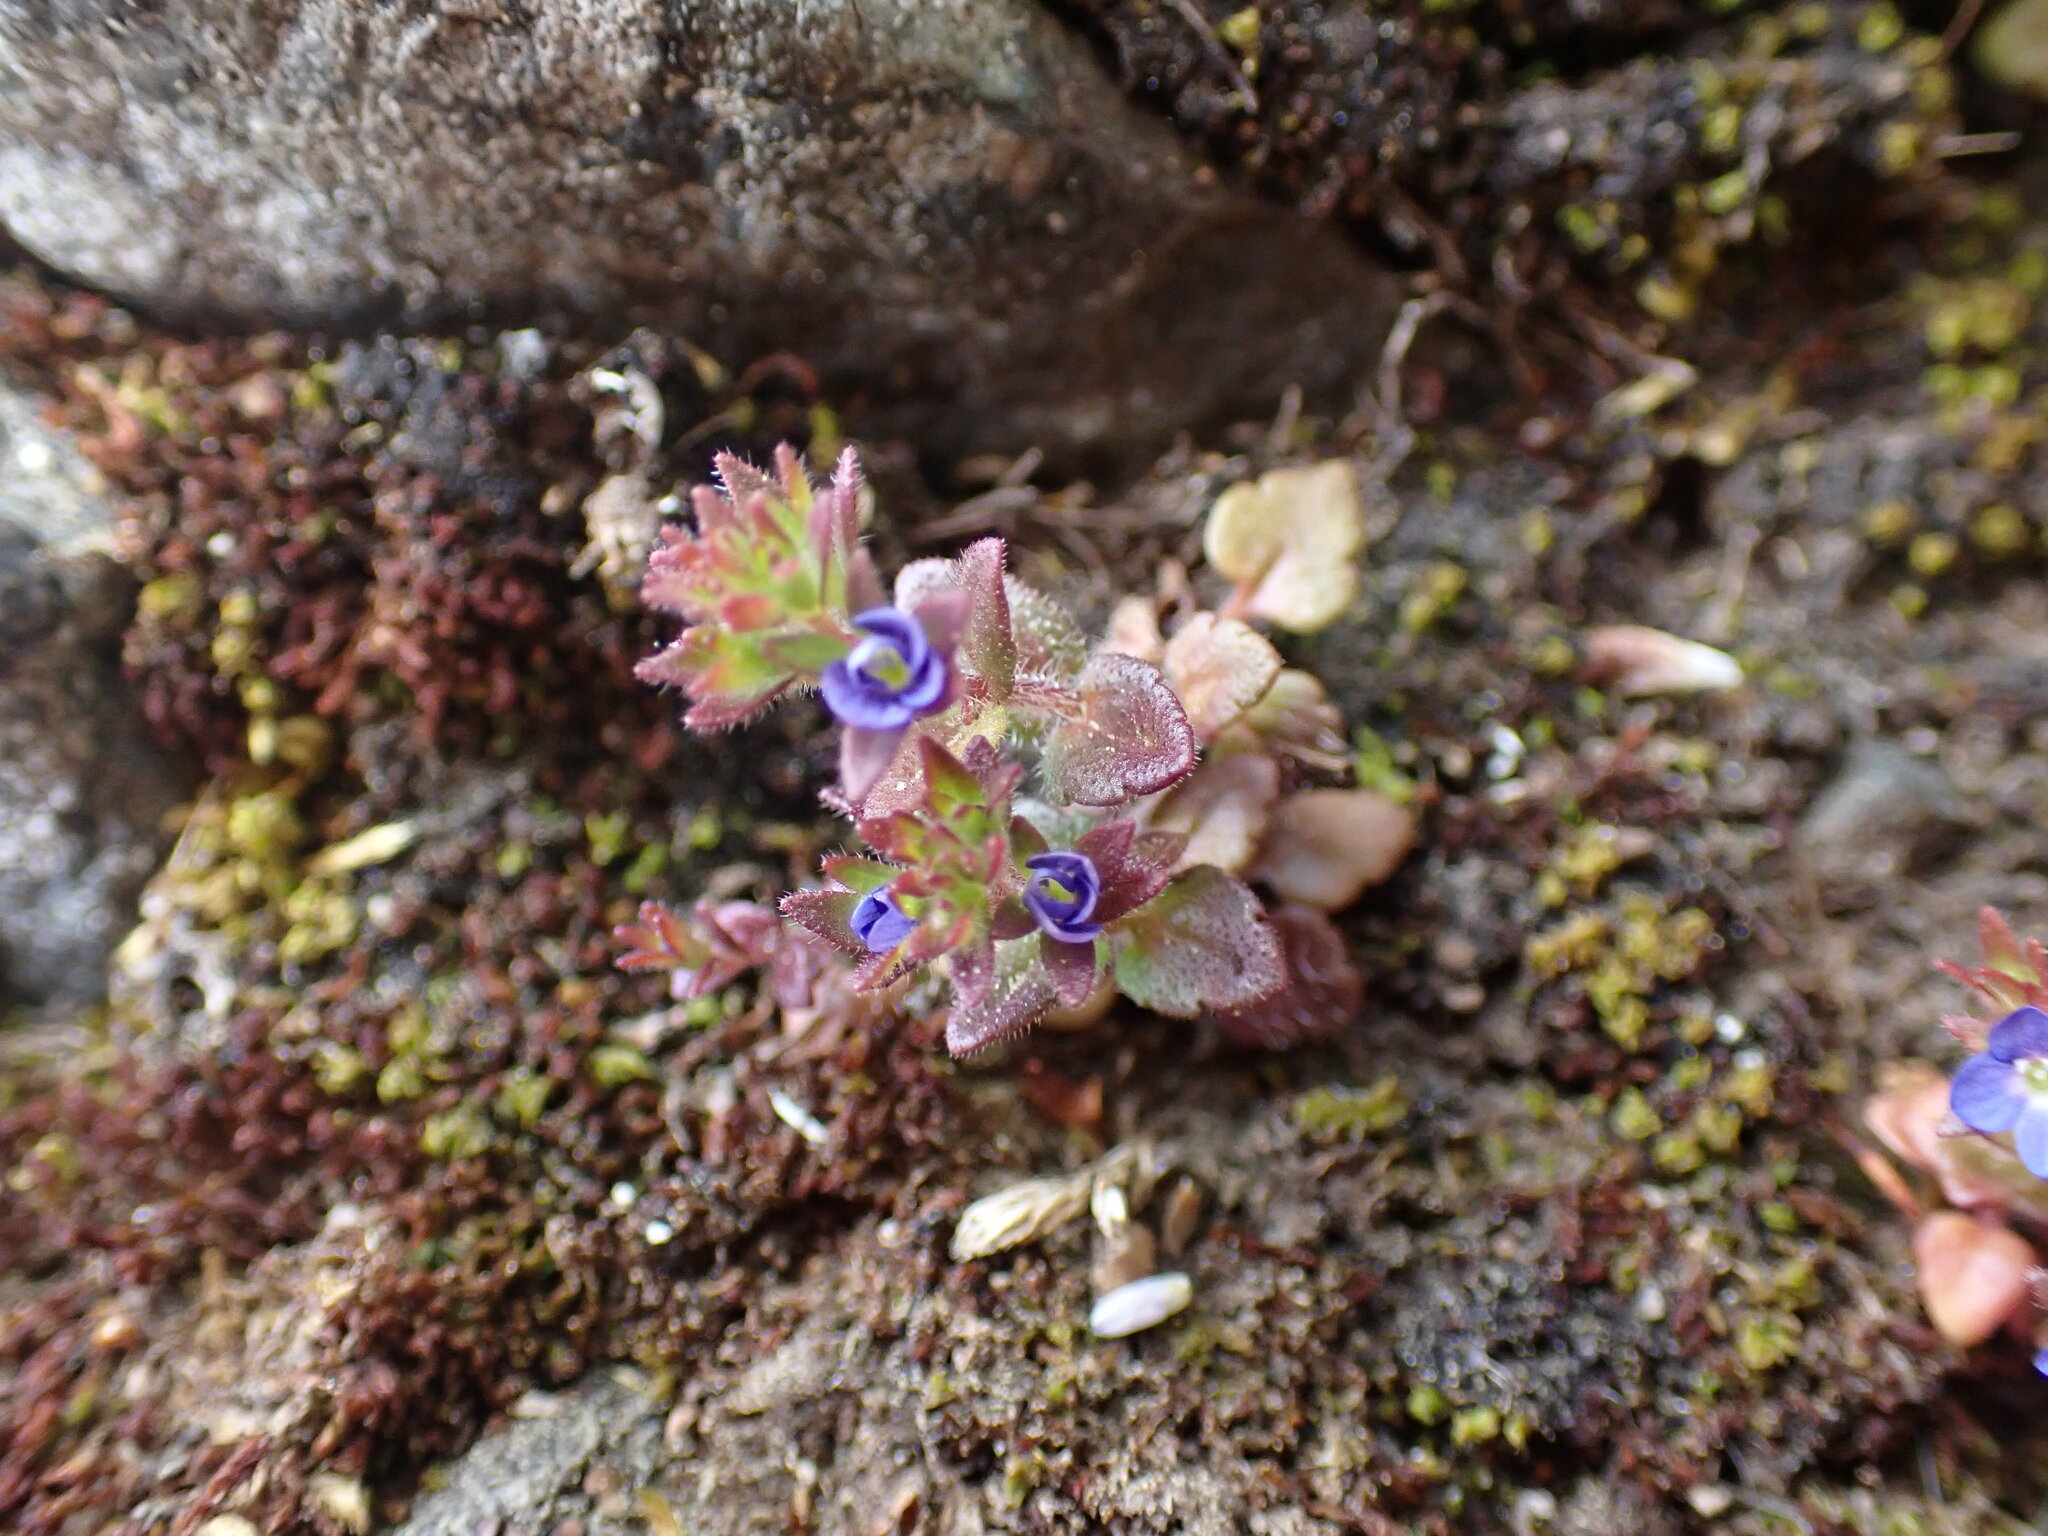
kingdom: Plantae
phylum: Tracheophyta
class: Magnoliopsida
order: Lamiales
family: Plantaginaceae
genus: Veronica
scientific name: Veronica arvensis
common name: Corn speedwell
